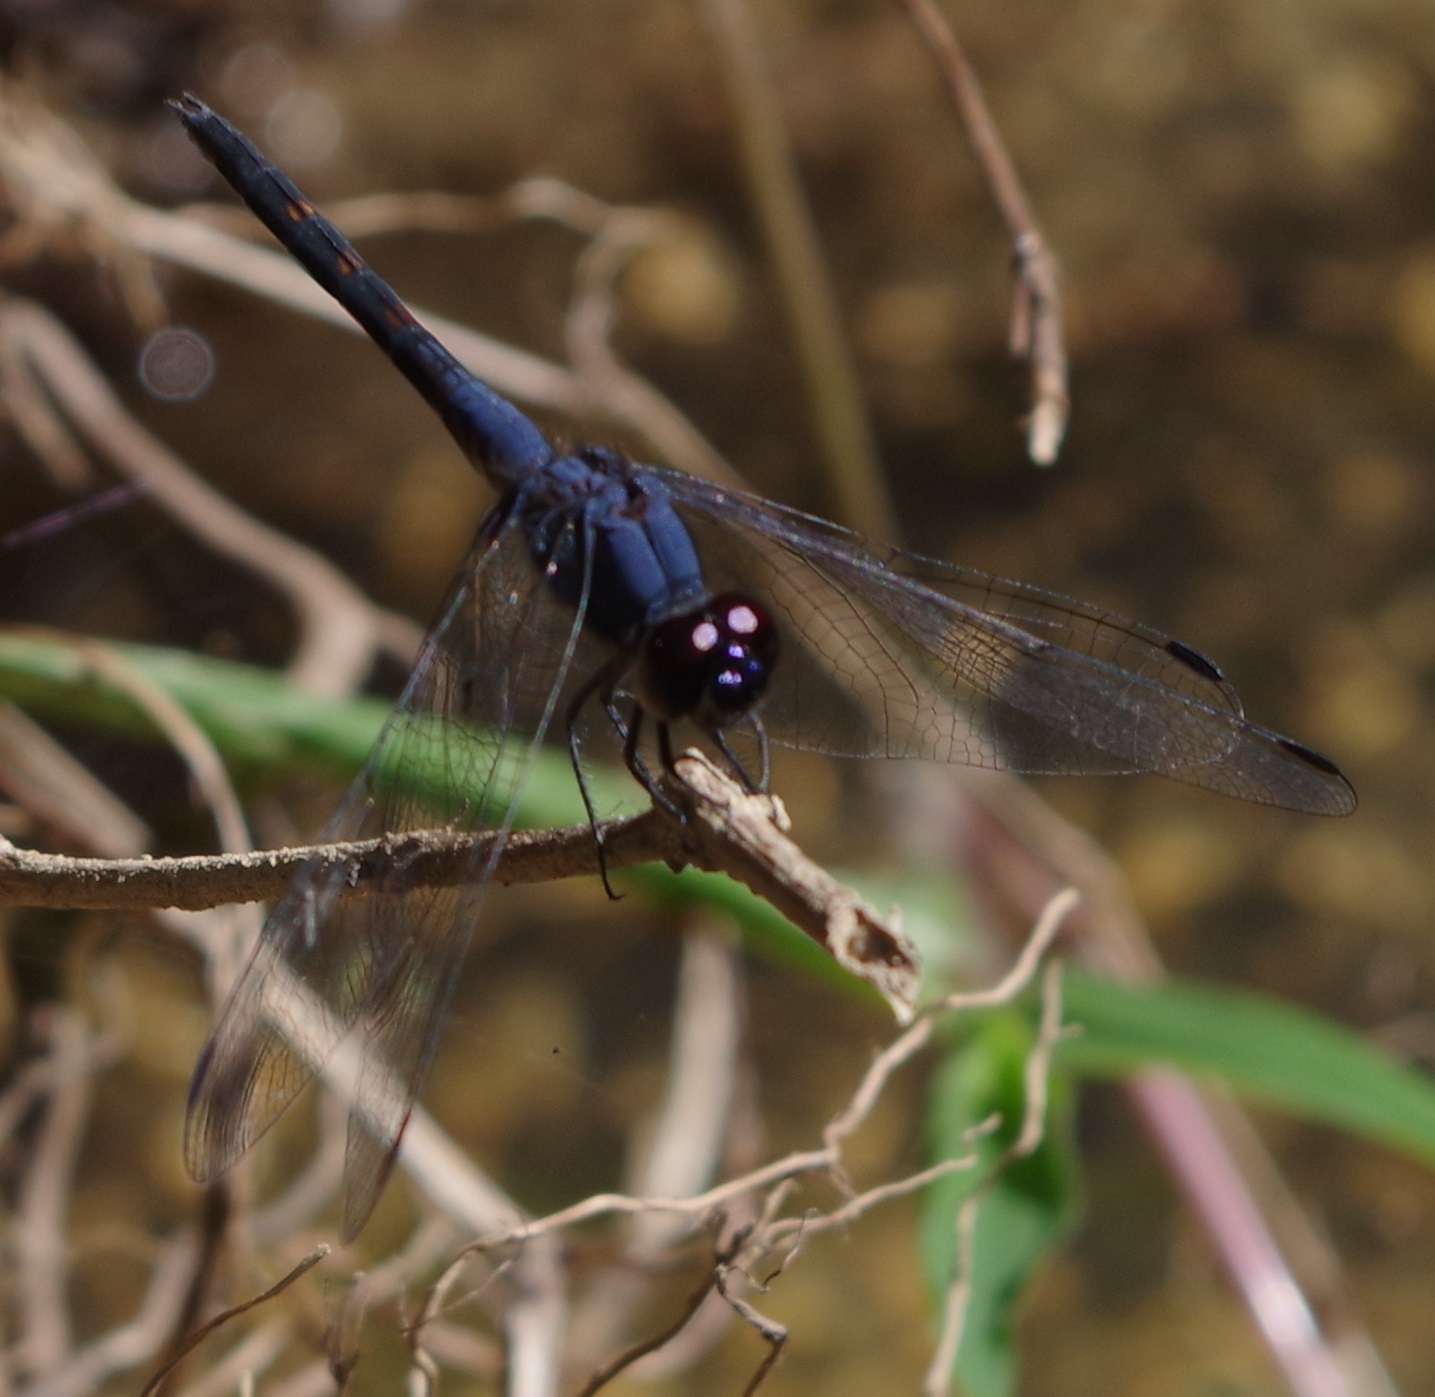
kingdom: Animalia
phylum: Arthropoda
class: Insecta
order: Odonata
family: Libellulidae
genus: Trithemis
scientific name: Trithemis festiva
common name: Indigo dropwing
